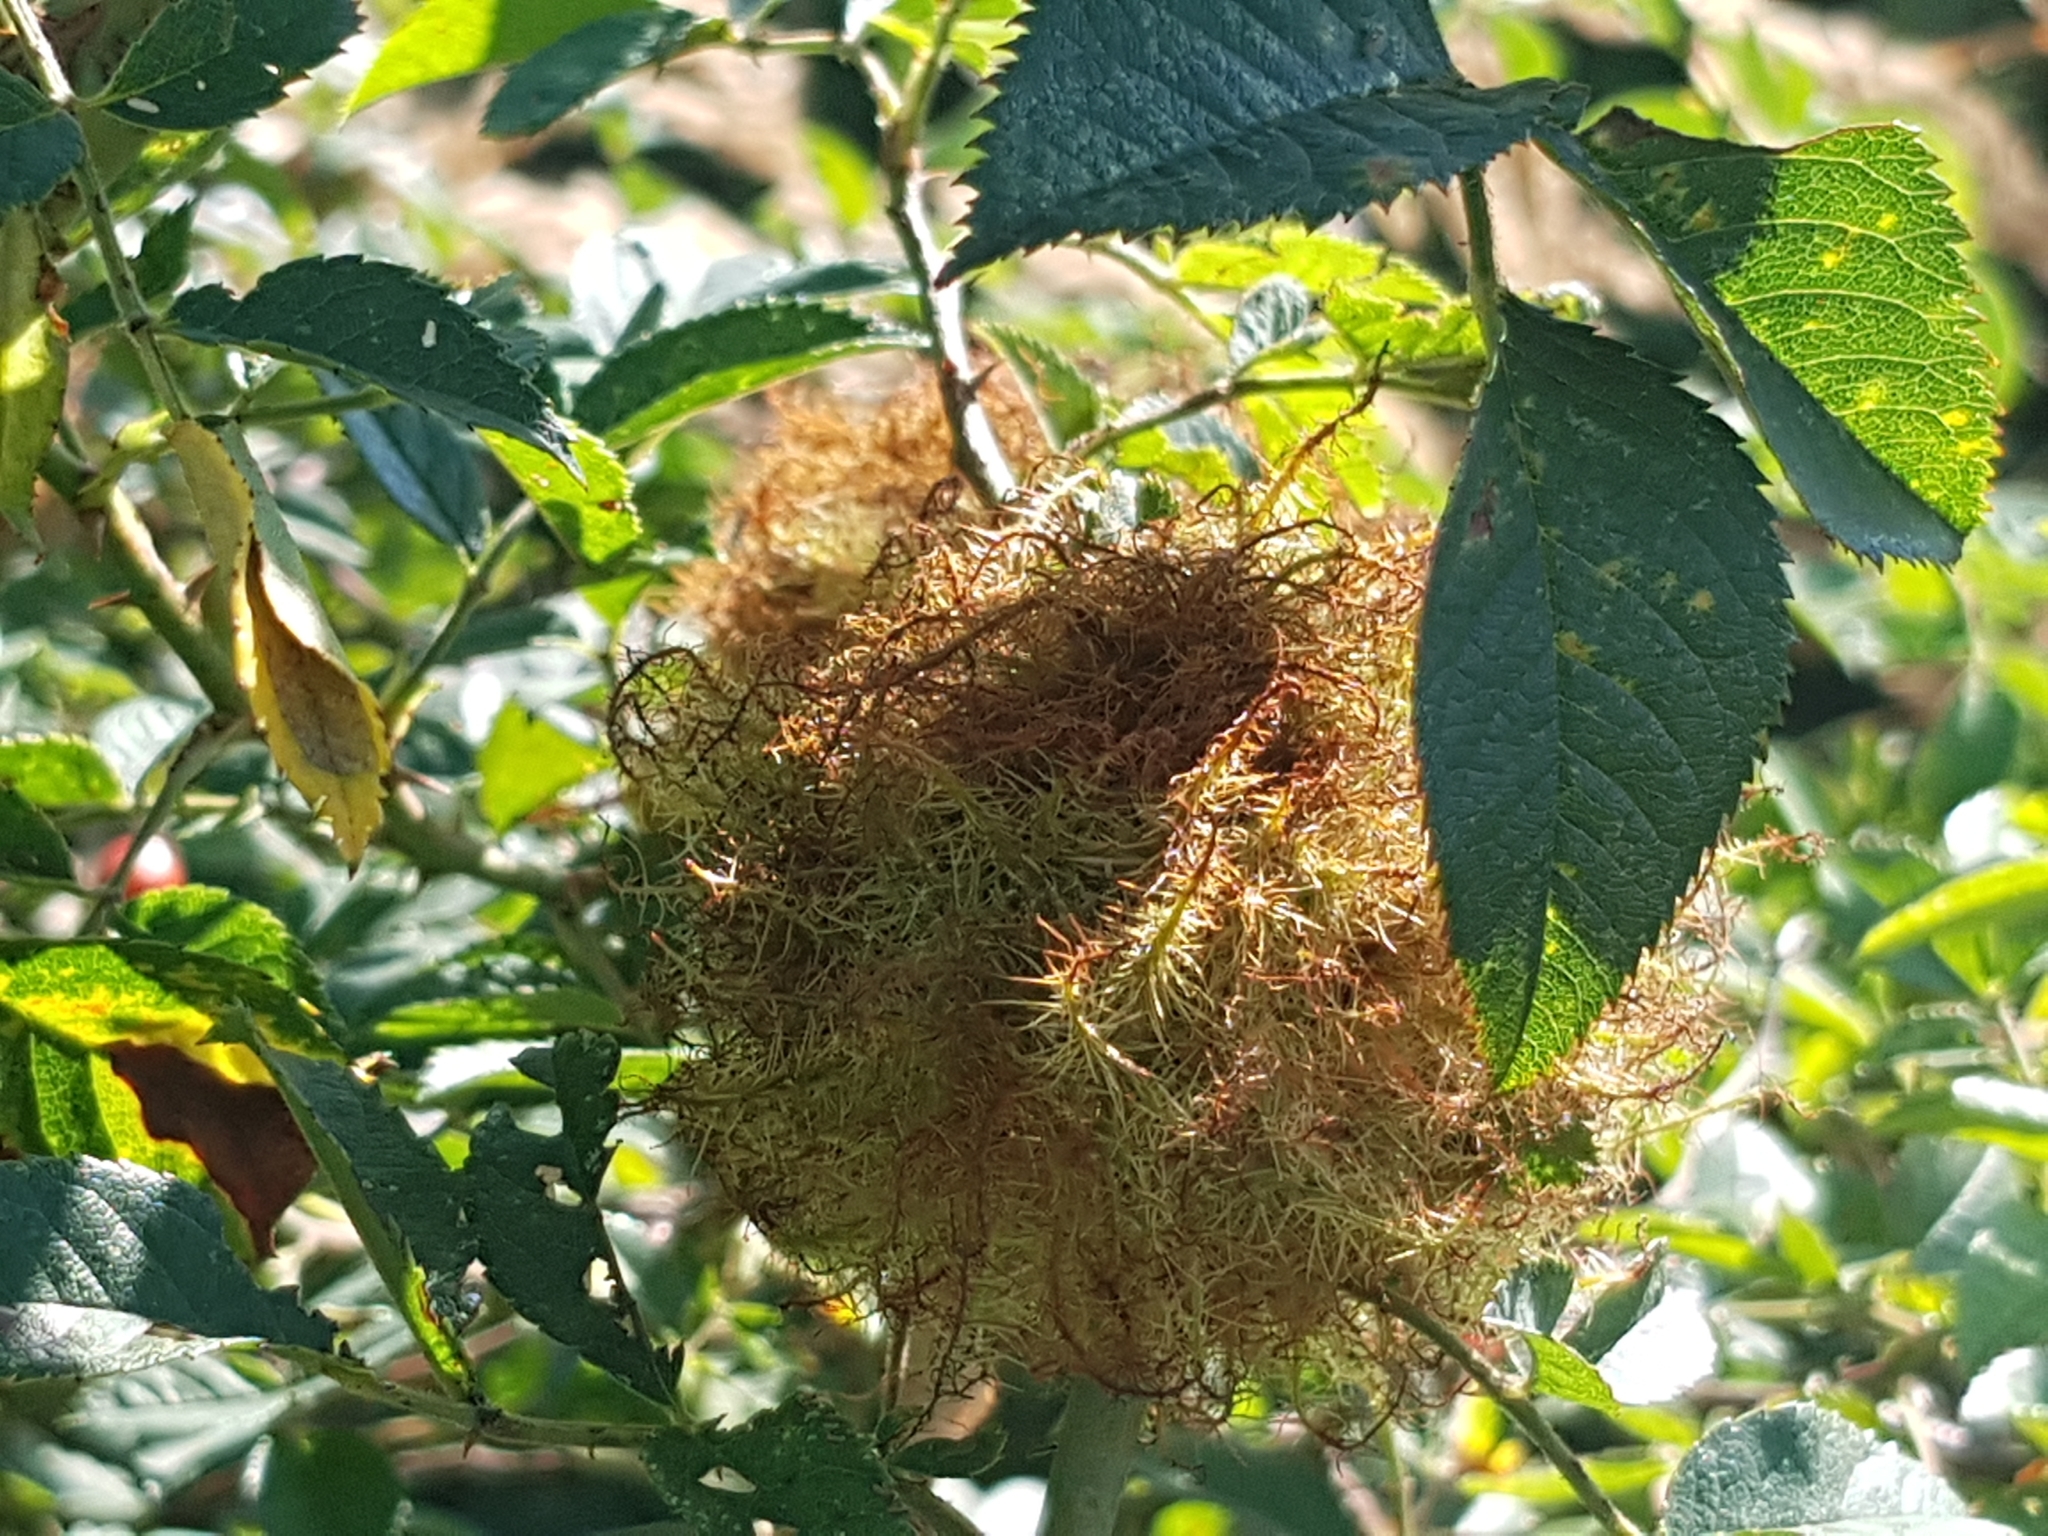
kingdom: Animalia
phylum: Arthropoda
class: Insecta
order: Hymenoptera
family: Cynipidae
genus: Diplolepis
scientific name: Diplolepis rosae
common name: Bedeguar gall
